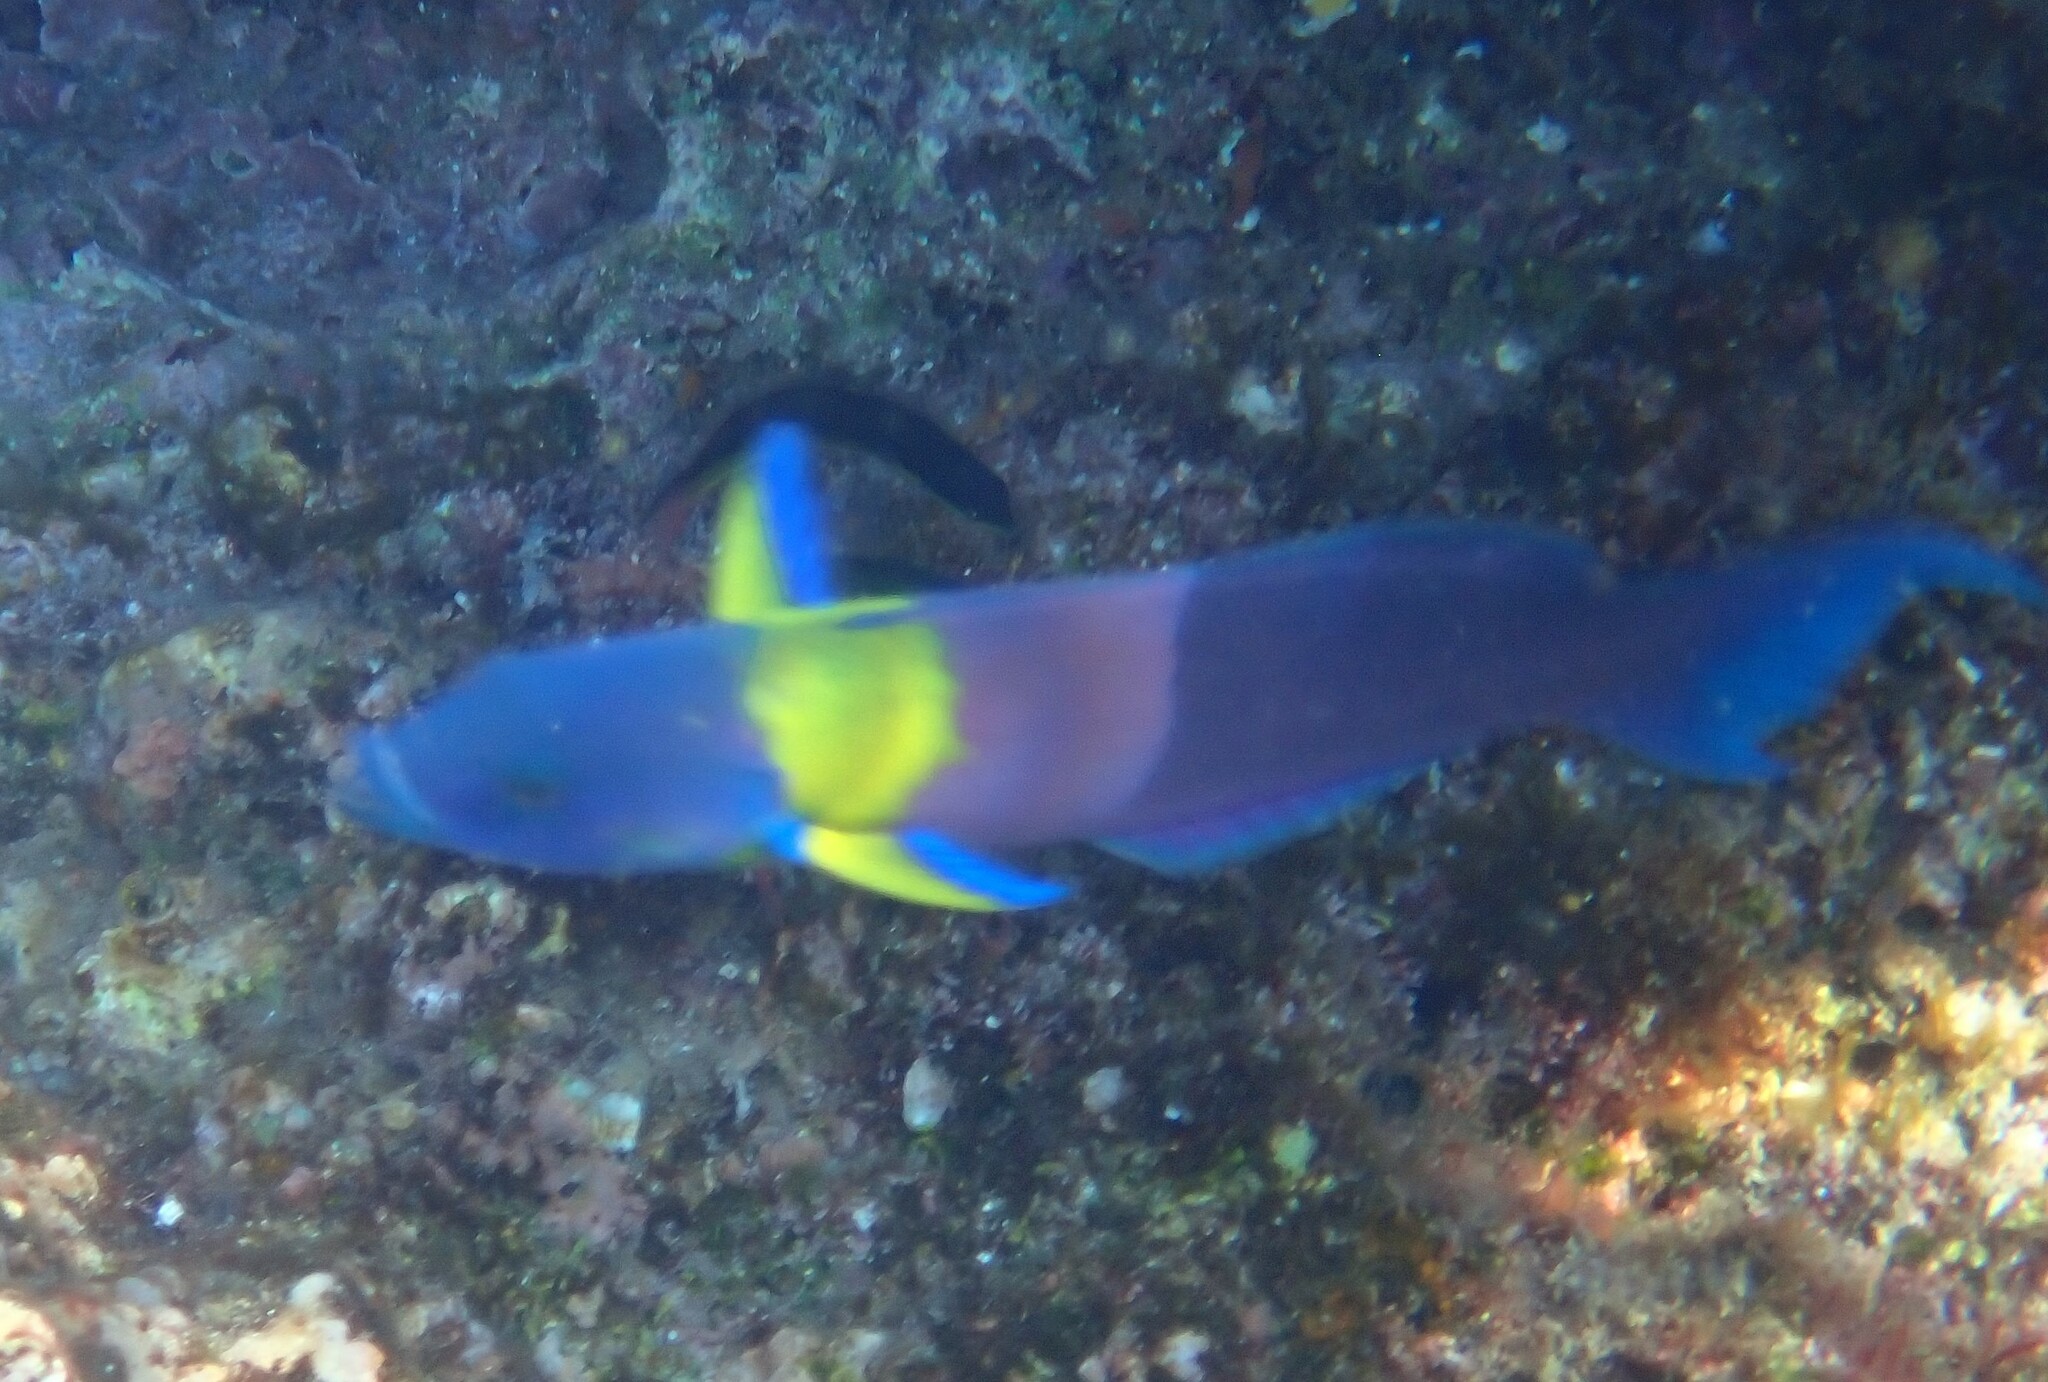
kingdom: Animalia
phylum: Chordata
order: Perciformes
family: Labridae
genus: Thalassoma
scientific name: Thalassoma lucasanum
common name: Cortez rainbow wrasse
